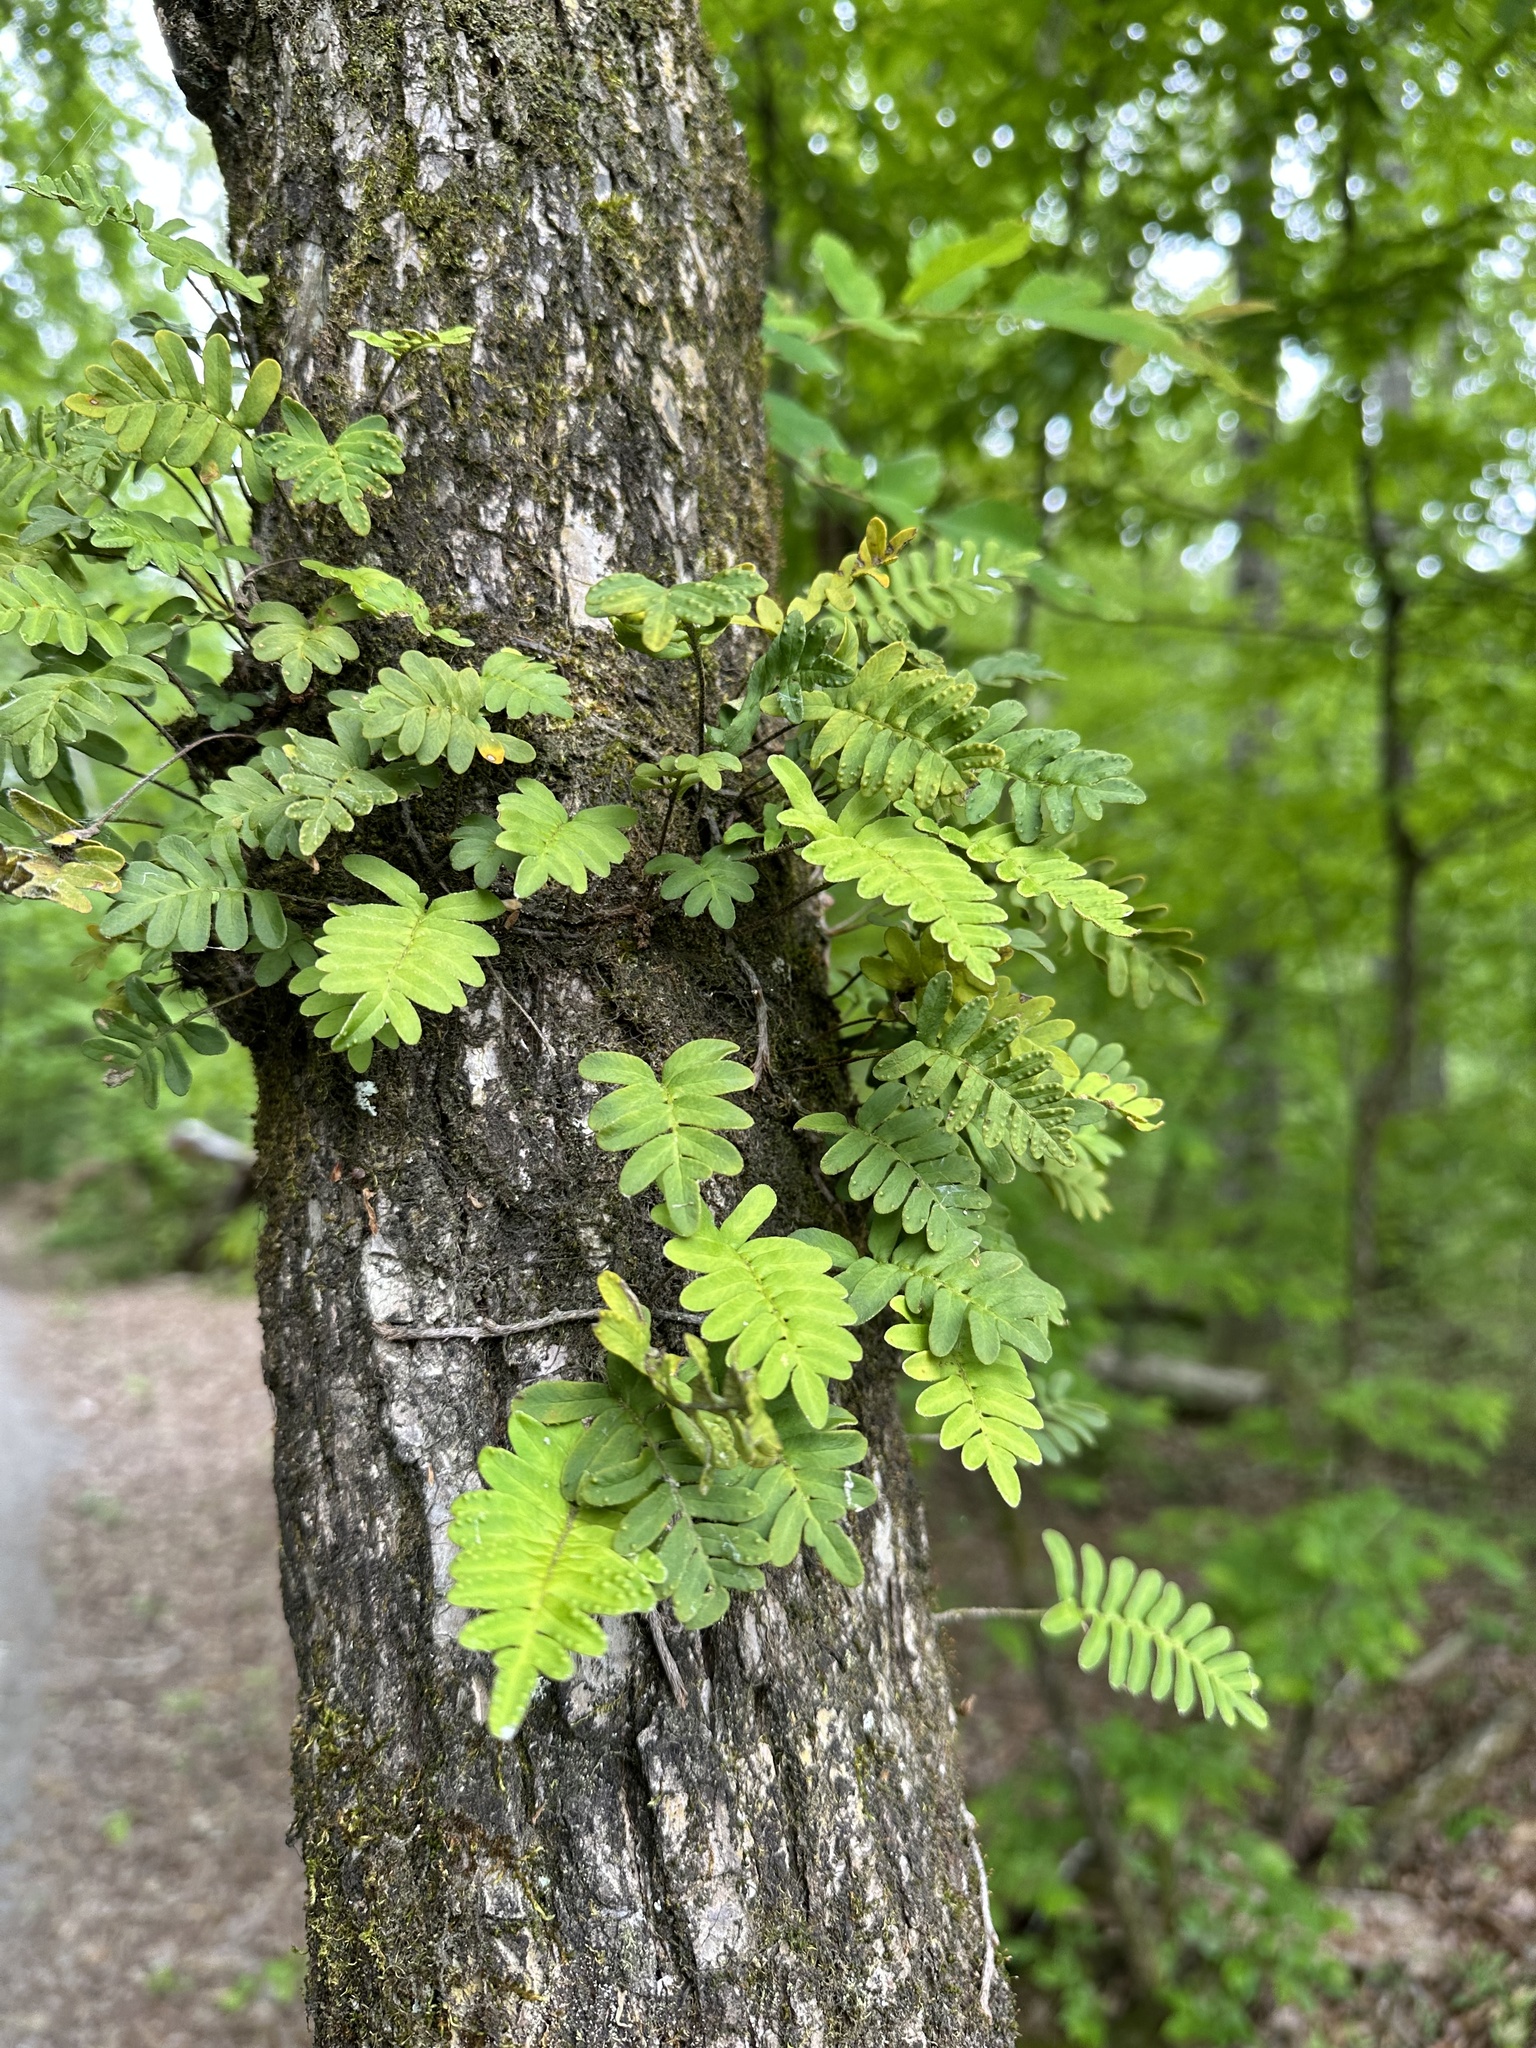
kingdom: Plantae
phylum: Tracheophyta
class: Polypodiopsida
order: Polypodiales
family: Polypodiaceae
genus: Pleopeltis
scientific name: Pleopeltis michauxiana
